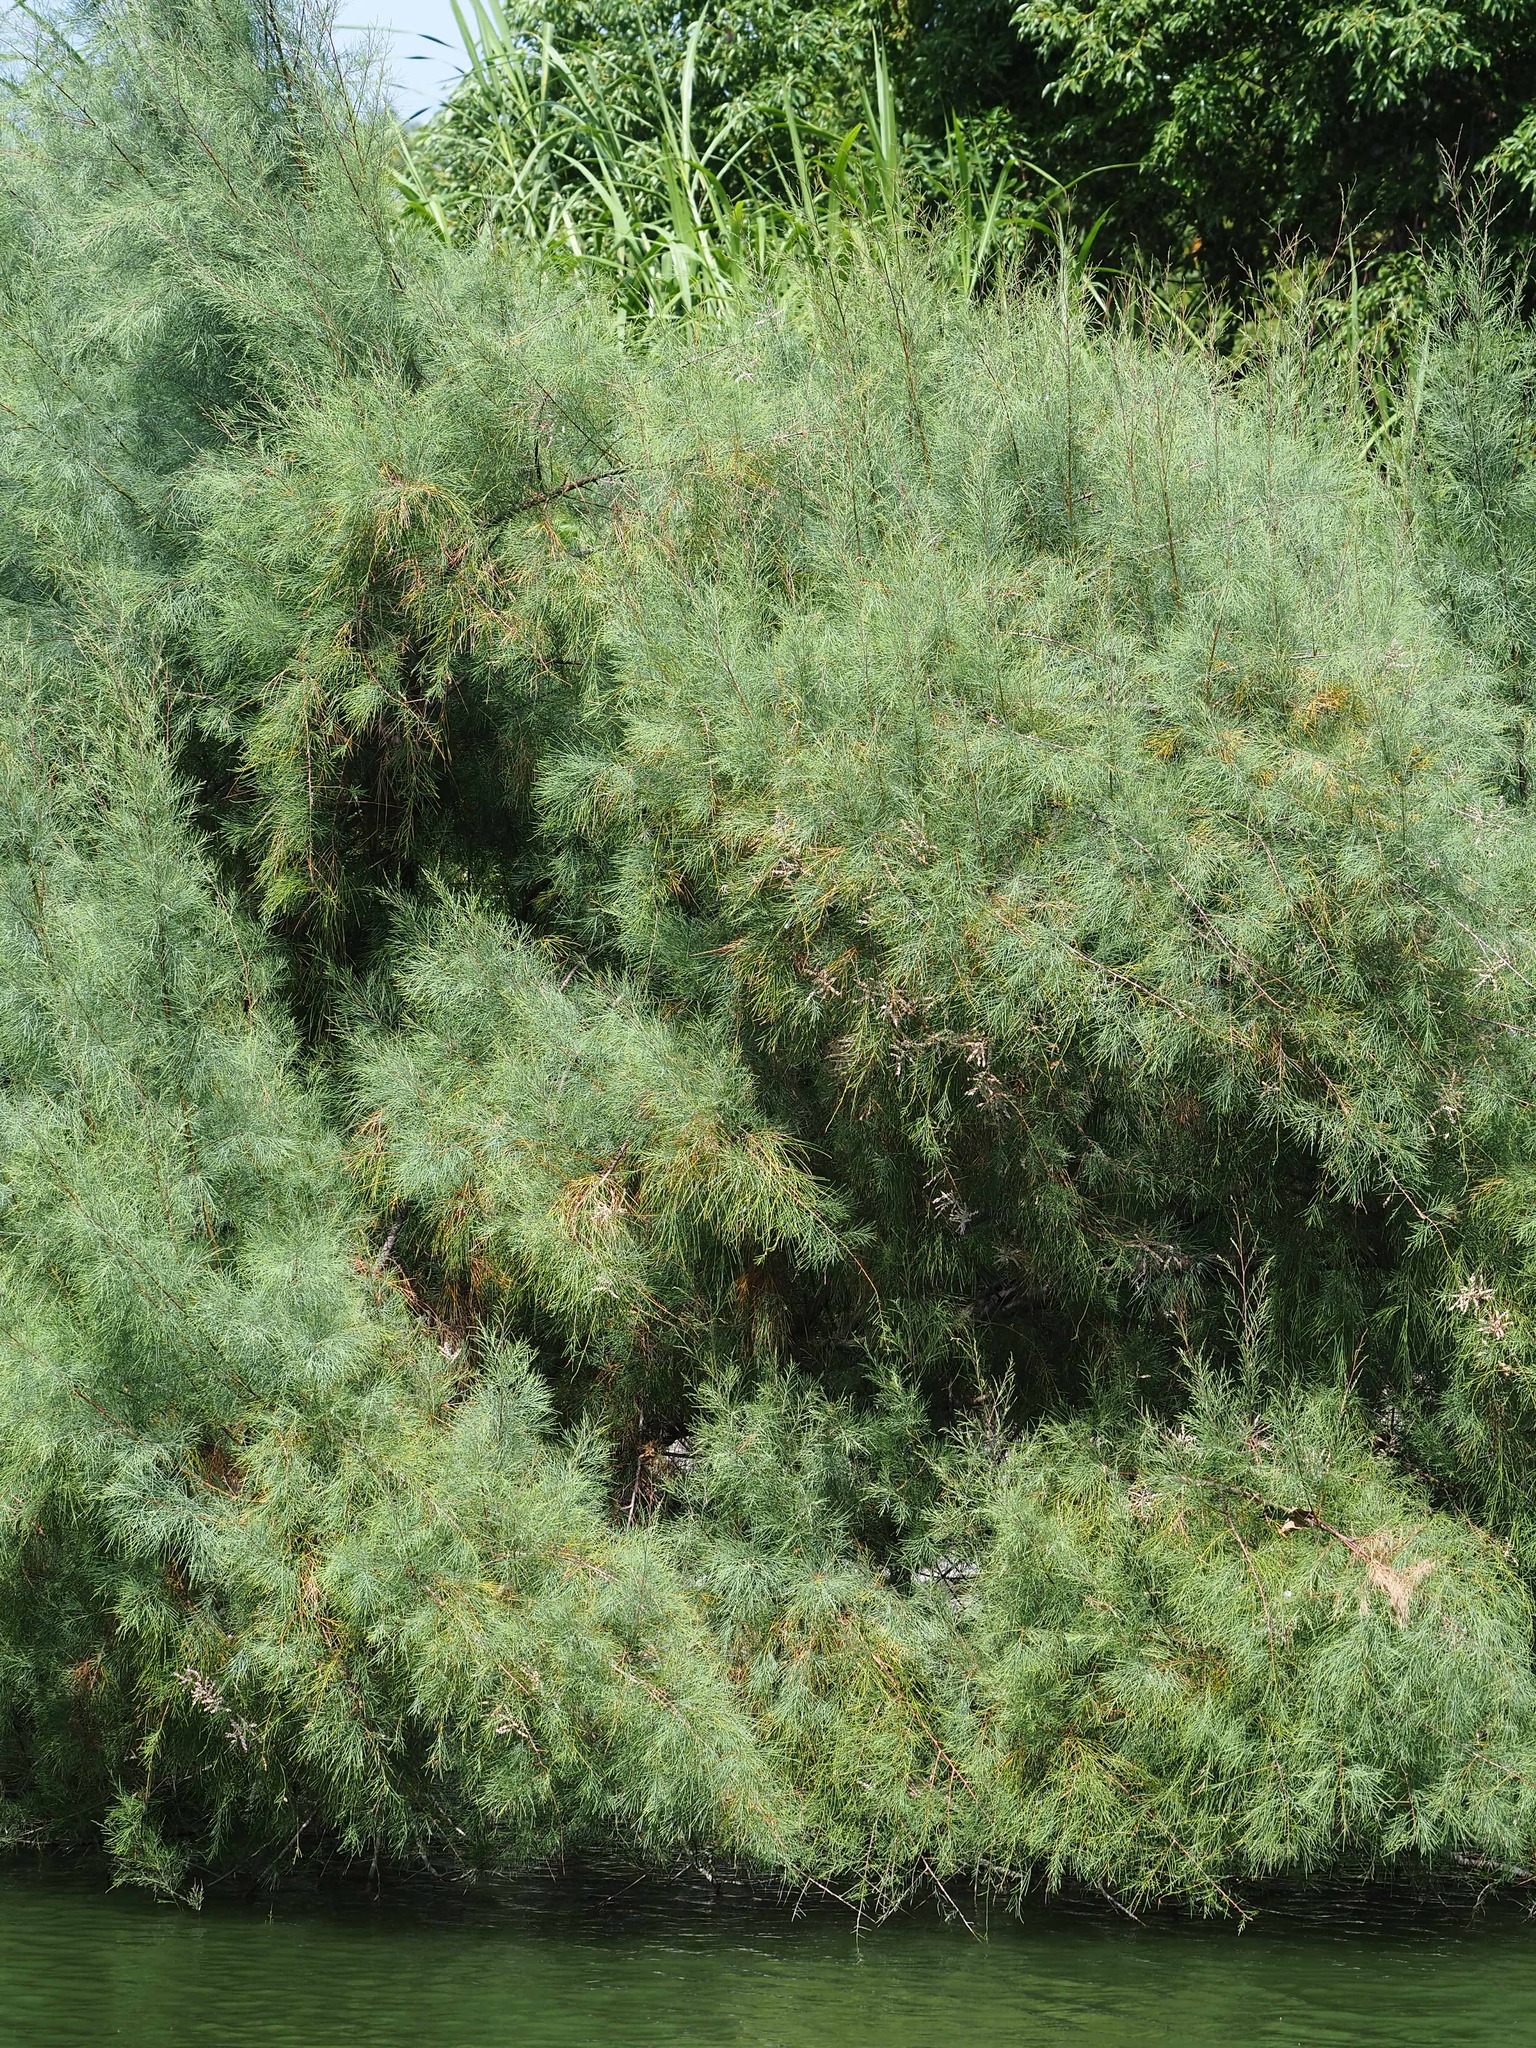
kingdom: Plantae
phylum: Tracheophyta
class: Magnoliopsida
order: Caryophyllales
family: Tamaricaceae
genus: Tamarix
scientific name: Tamarix aphylla
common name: Athel tamarisk
